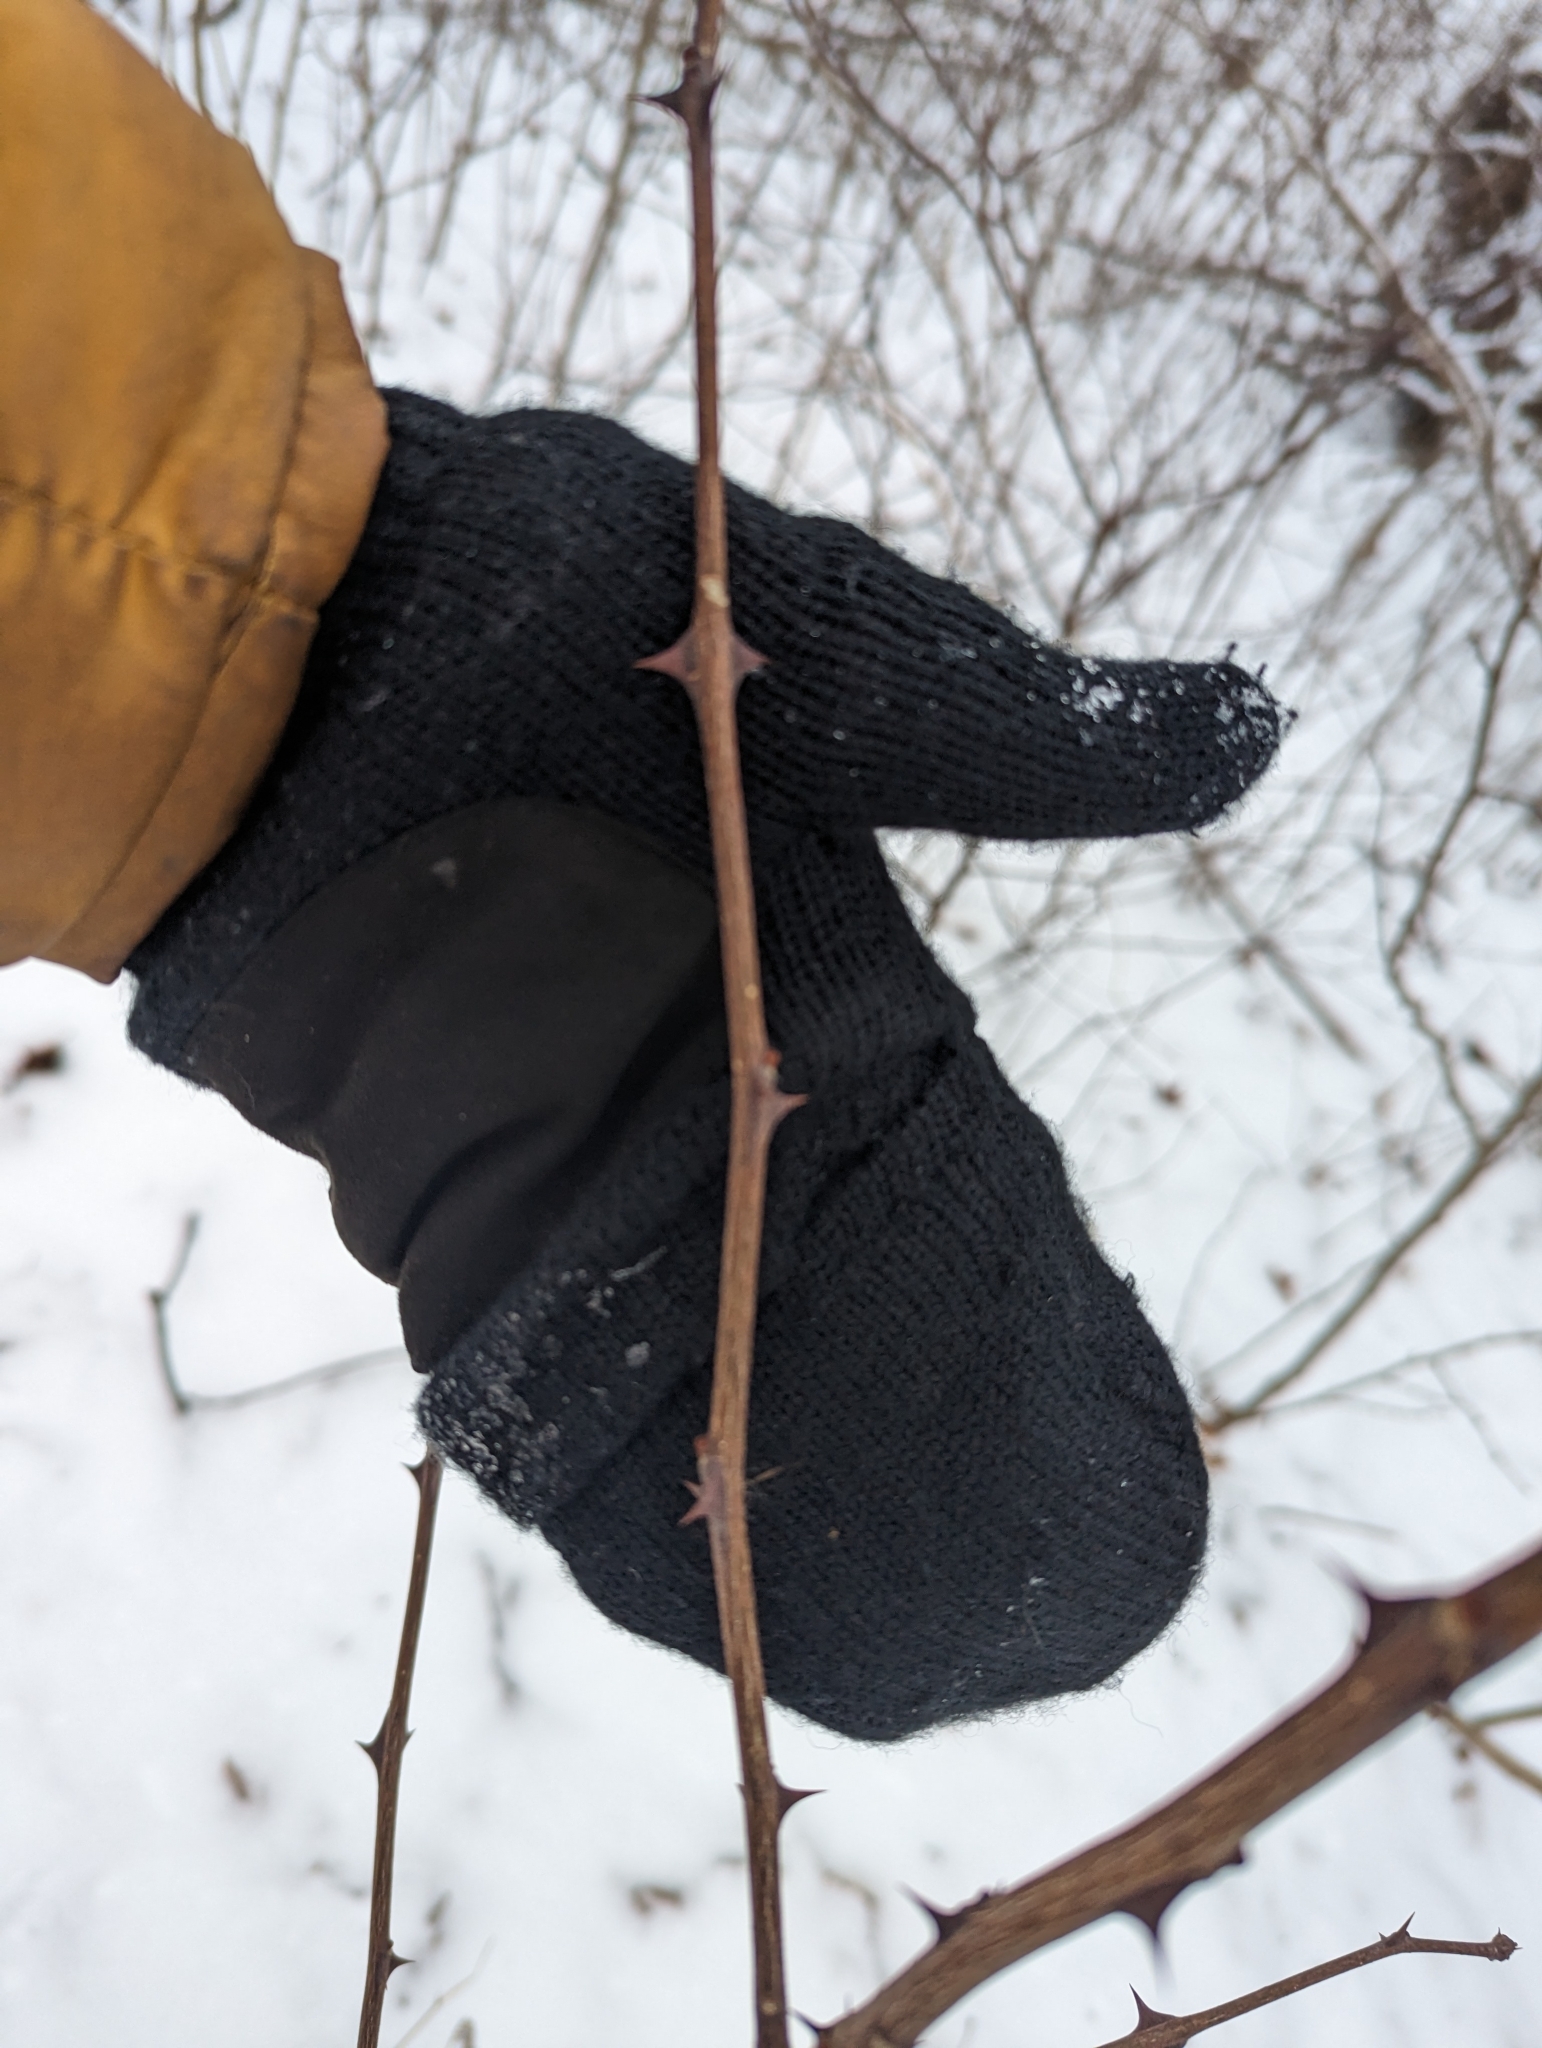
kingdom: Plantae
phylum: Tracheophyta
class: Magnoliopsida
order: Sapindales
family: Rutaceae
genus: Zanthoxylum
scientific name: Zanthoxylum americanum
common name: Northern prickly-ash
